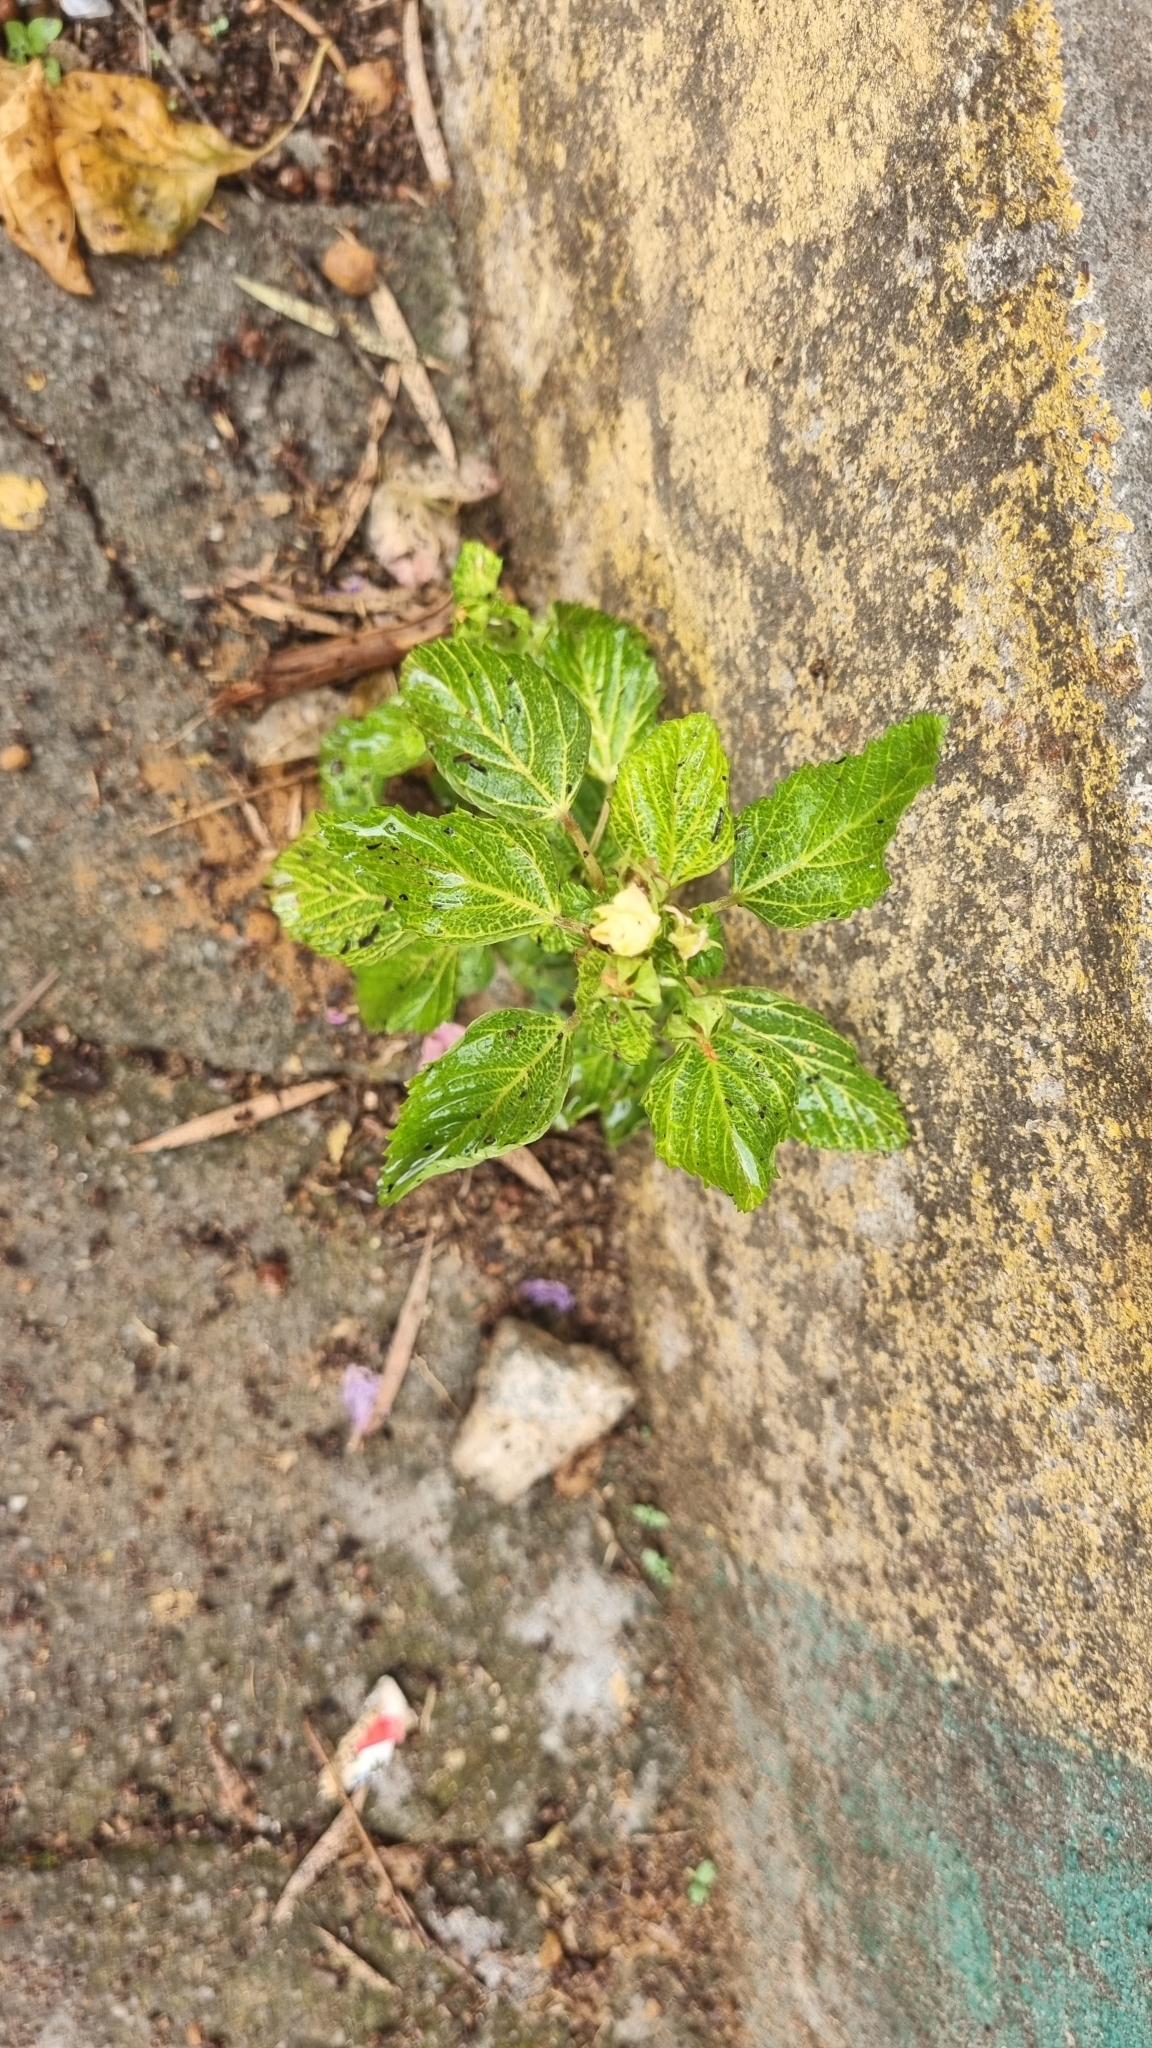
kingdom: Plantae
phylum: Tracheophyta
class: Magnoliopsida
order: Malvales
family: Malvaceae
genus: Malvastrum
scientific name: Malvastrum coromandelianum
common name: Threelobe false mallow
